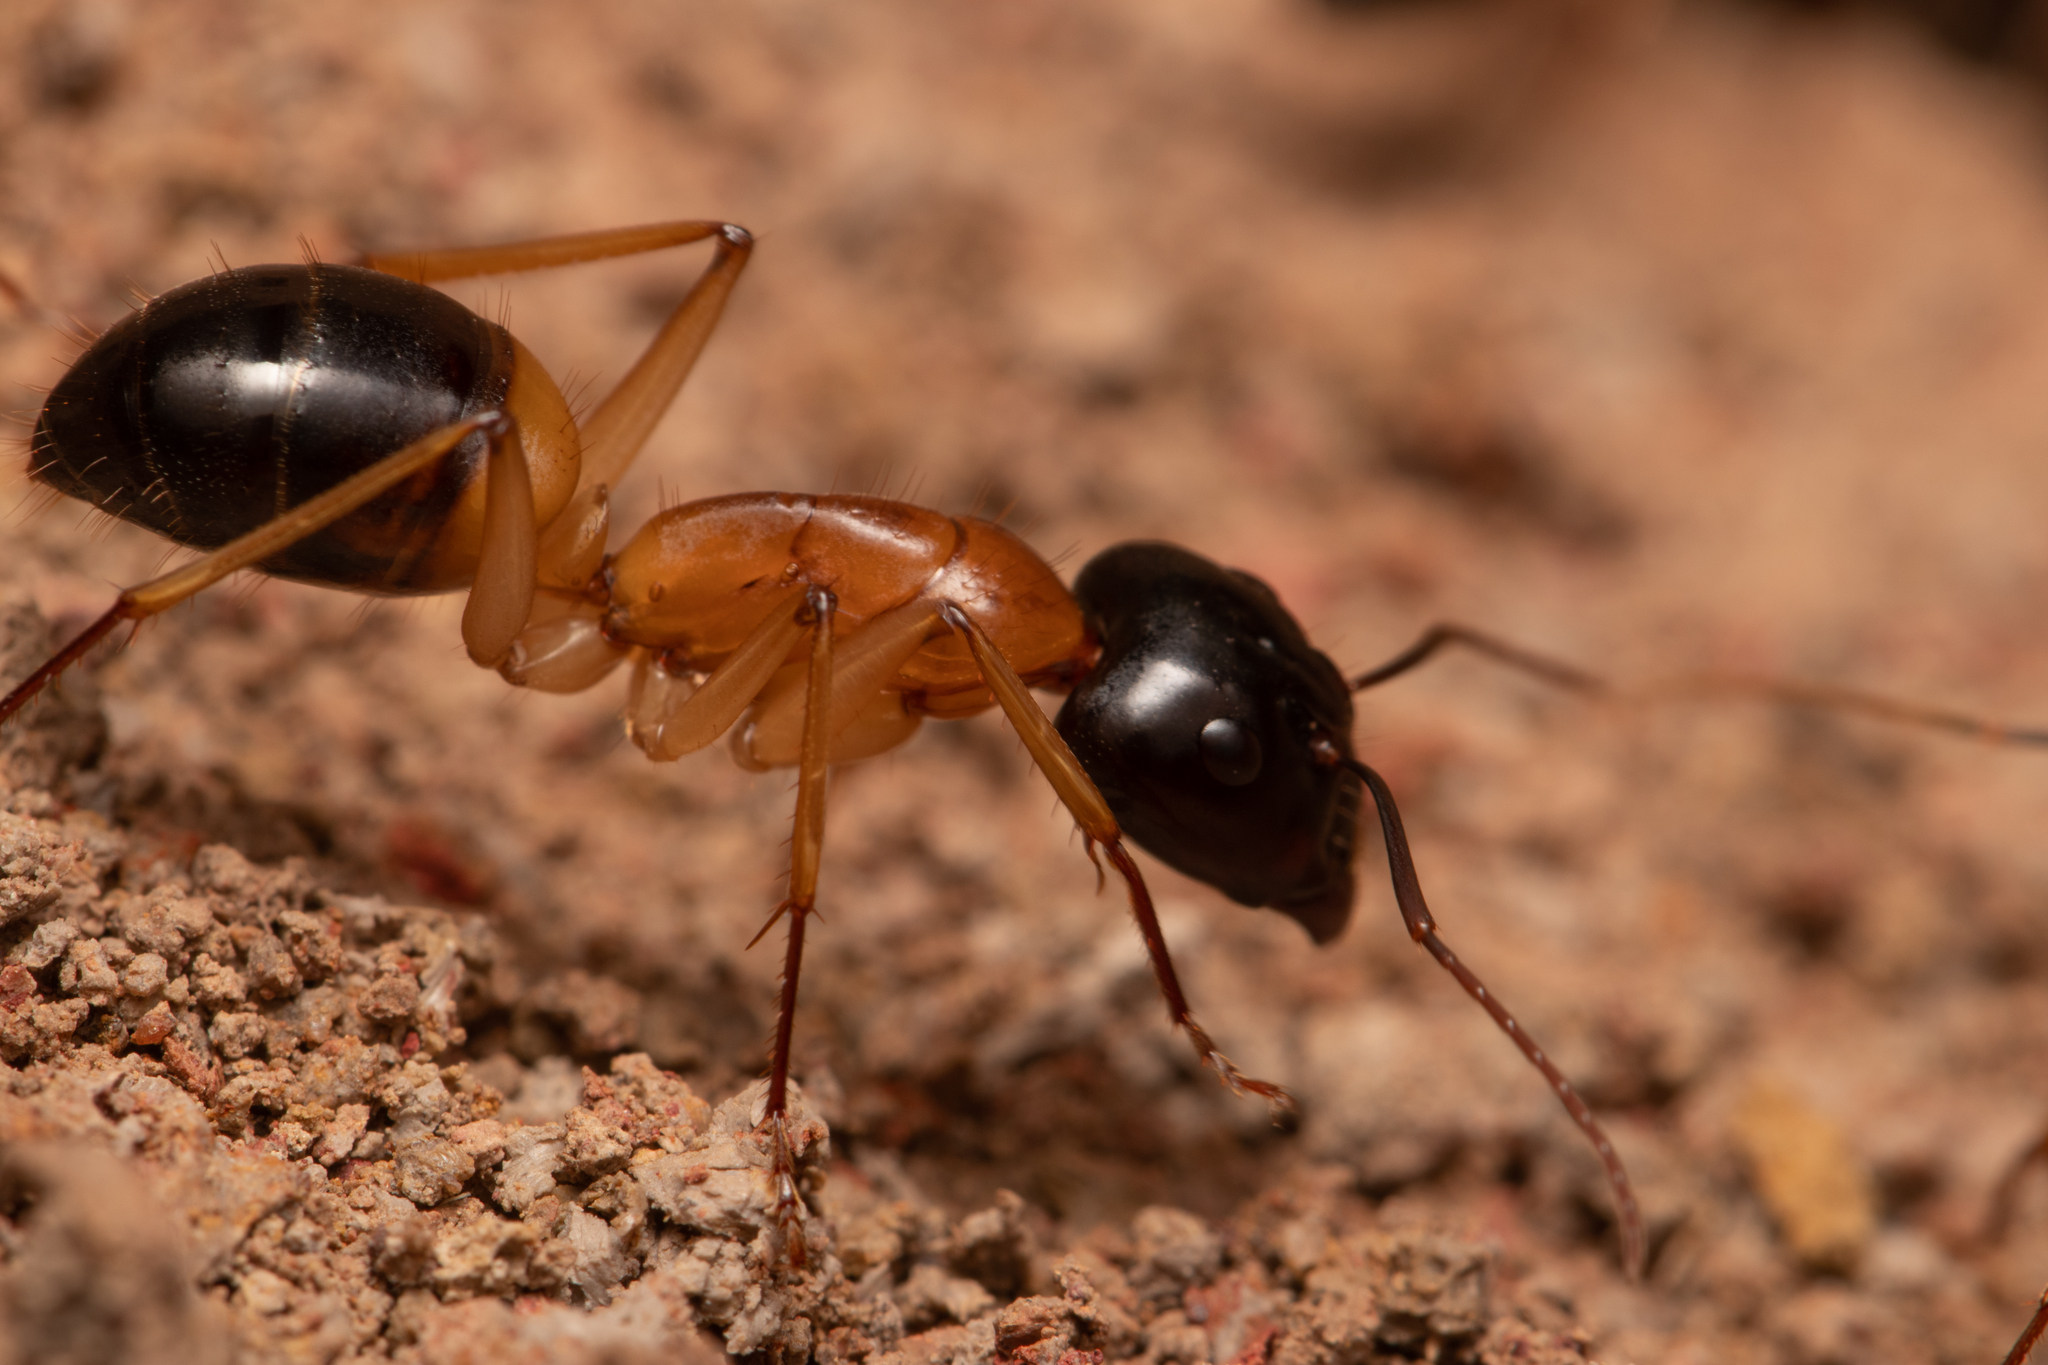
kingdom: Animalia
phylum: Arthropoda
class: Insecta
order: Hymenoptera
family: Formicidae
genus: Camponotus
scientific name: Camponotus consobrinus
